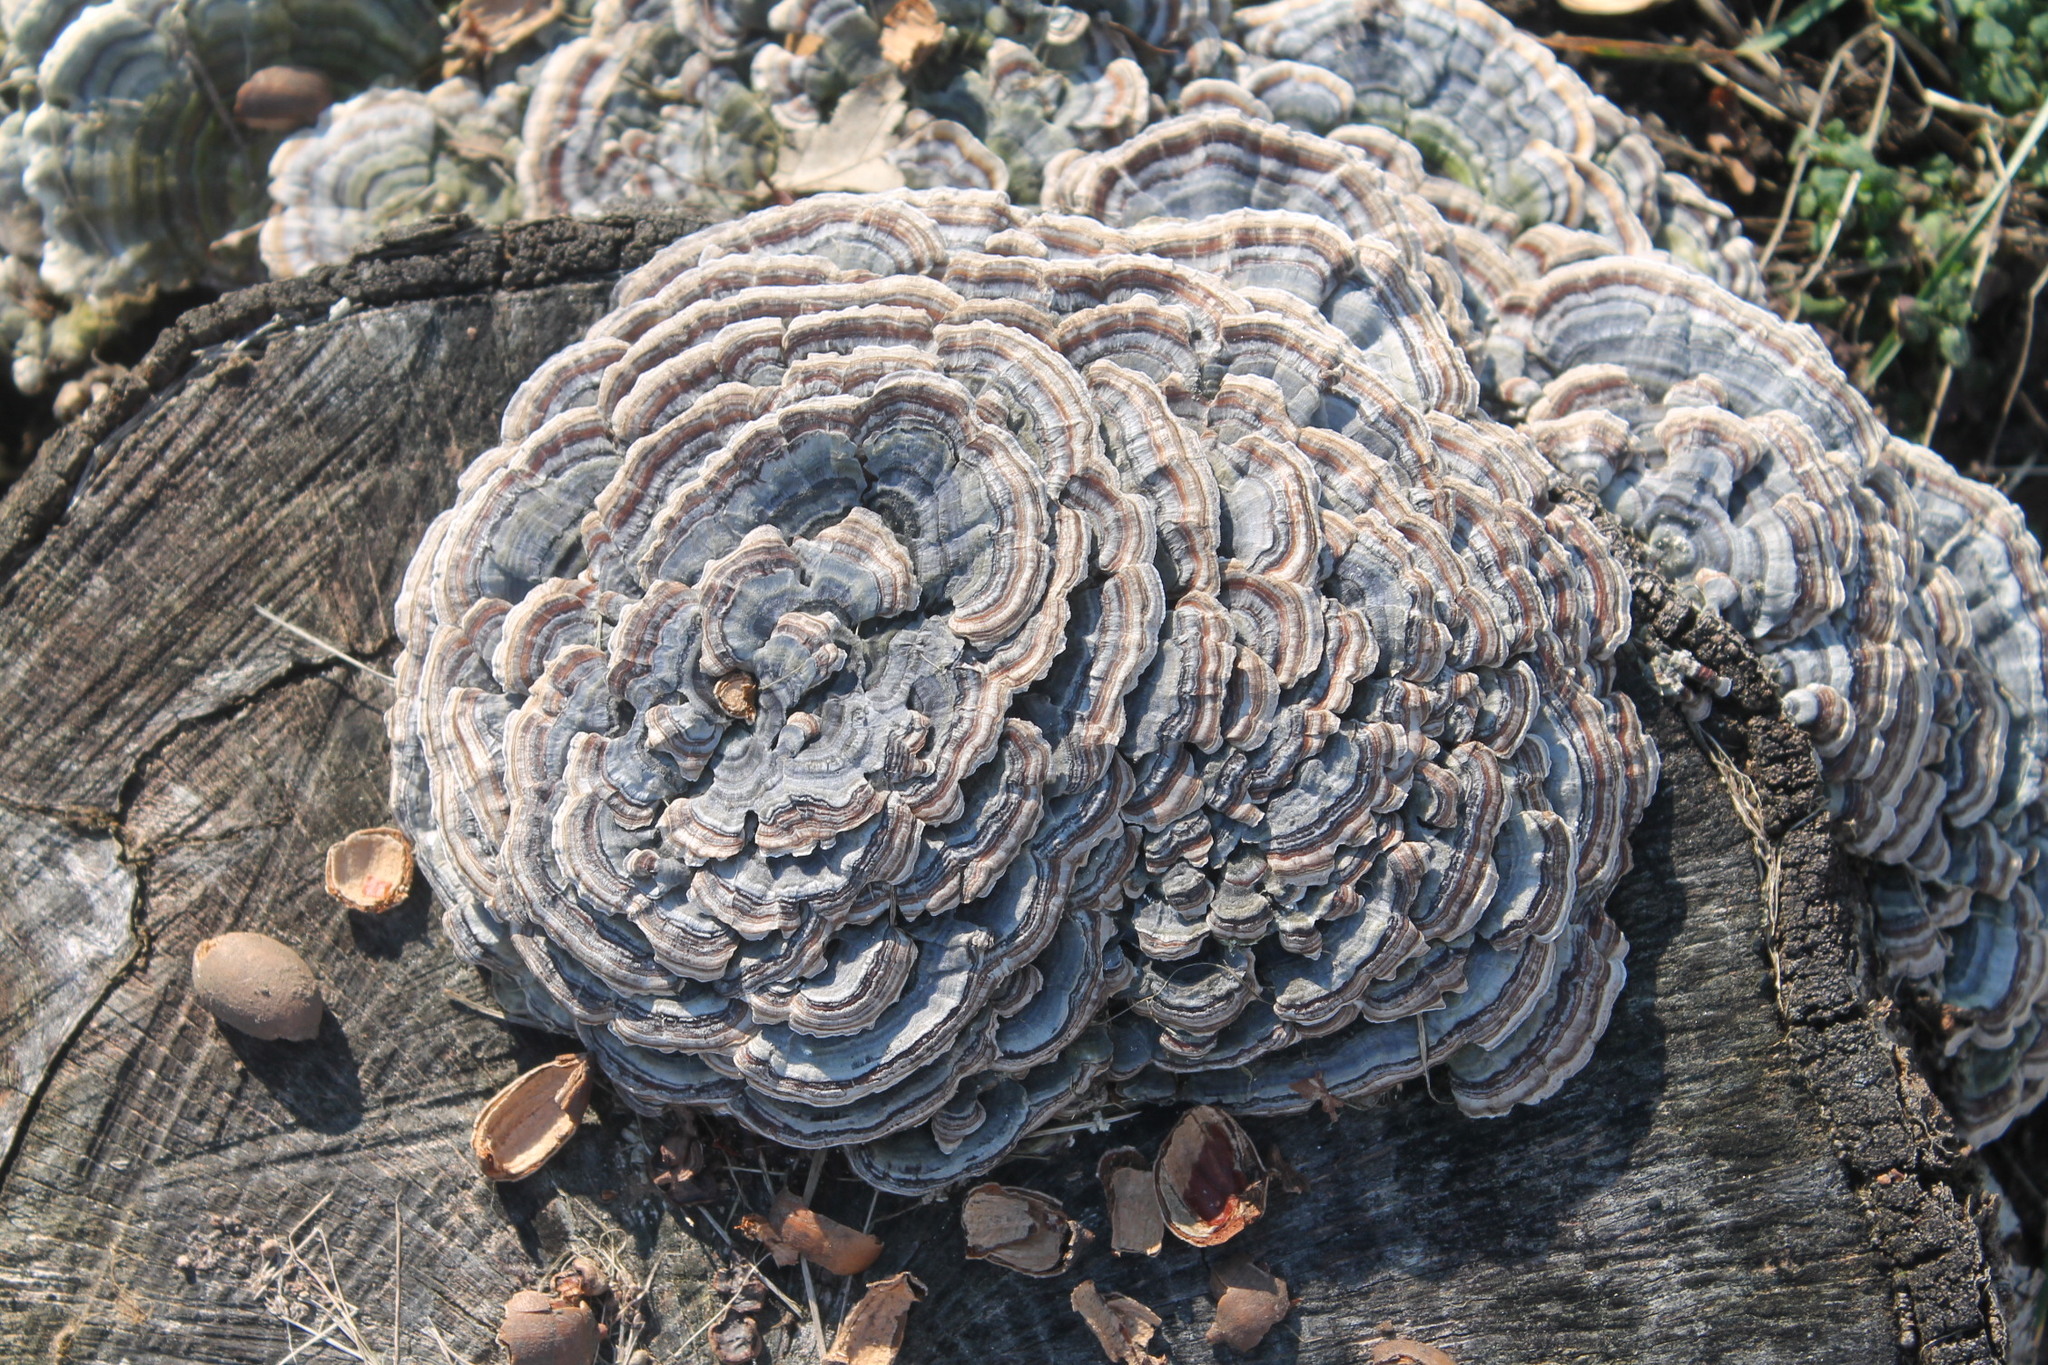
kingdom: Fungi
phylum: Basidiomycota
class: Agaricomycetes
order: Polyporales
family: Polyporaceae
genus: Trametes
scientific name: Trametes versicolor
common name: Turkeytail
